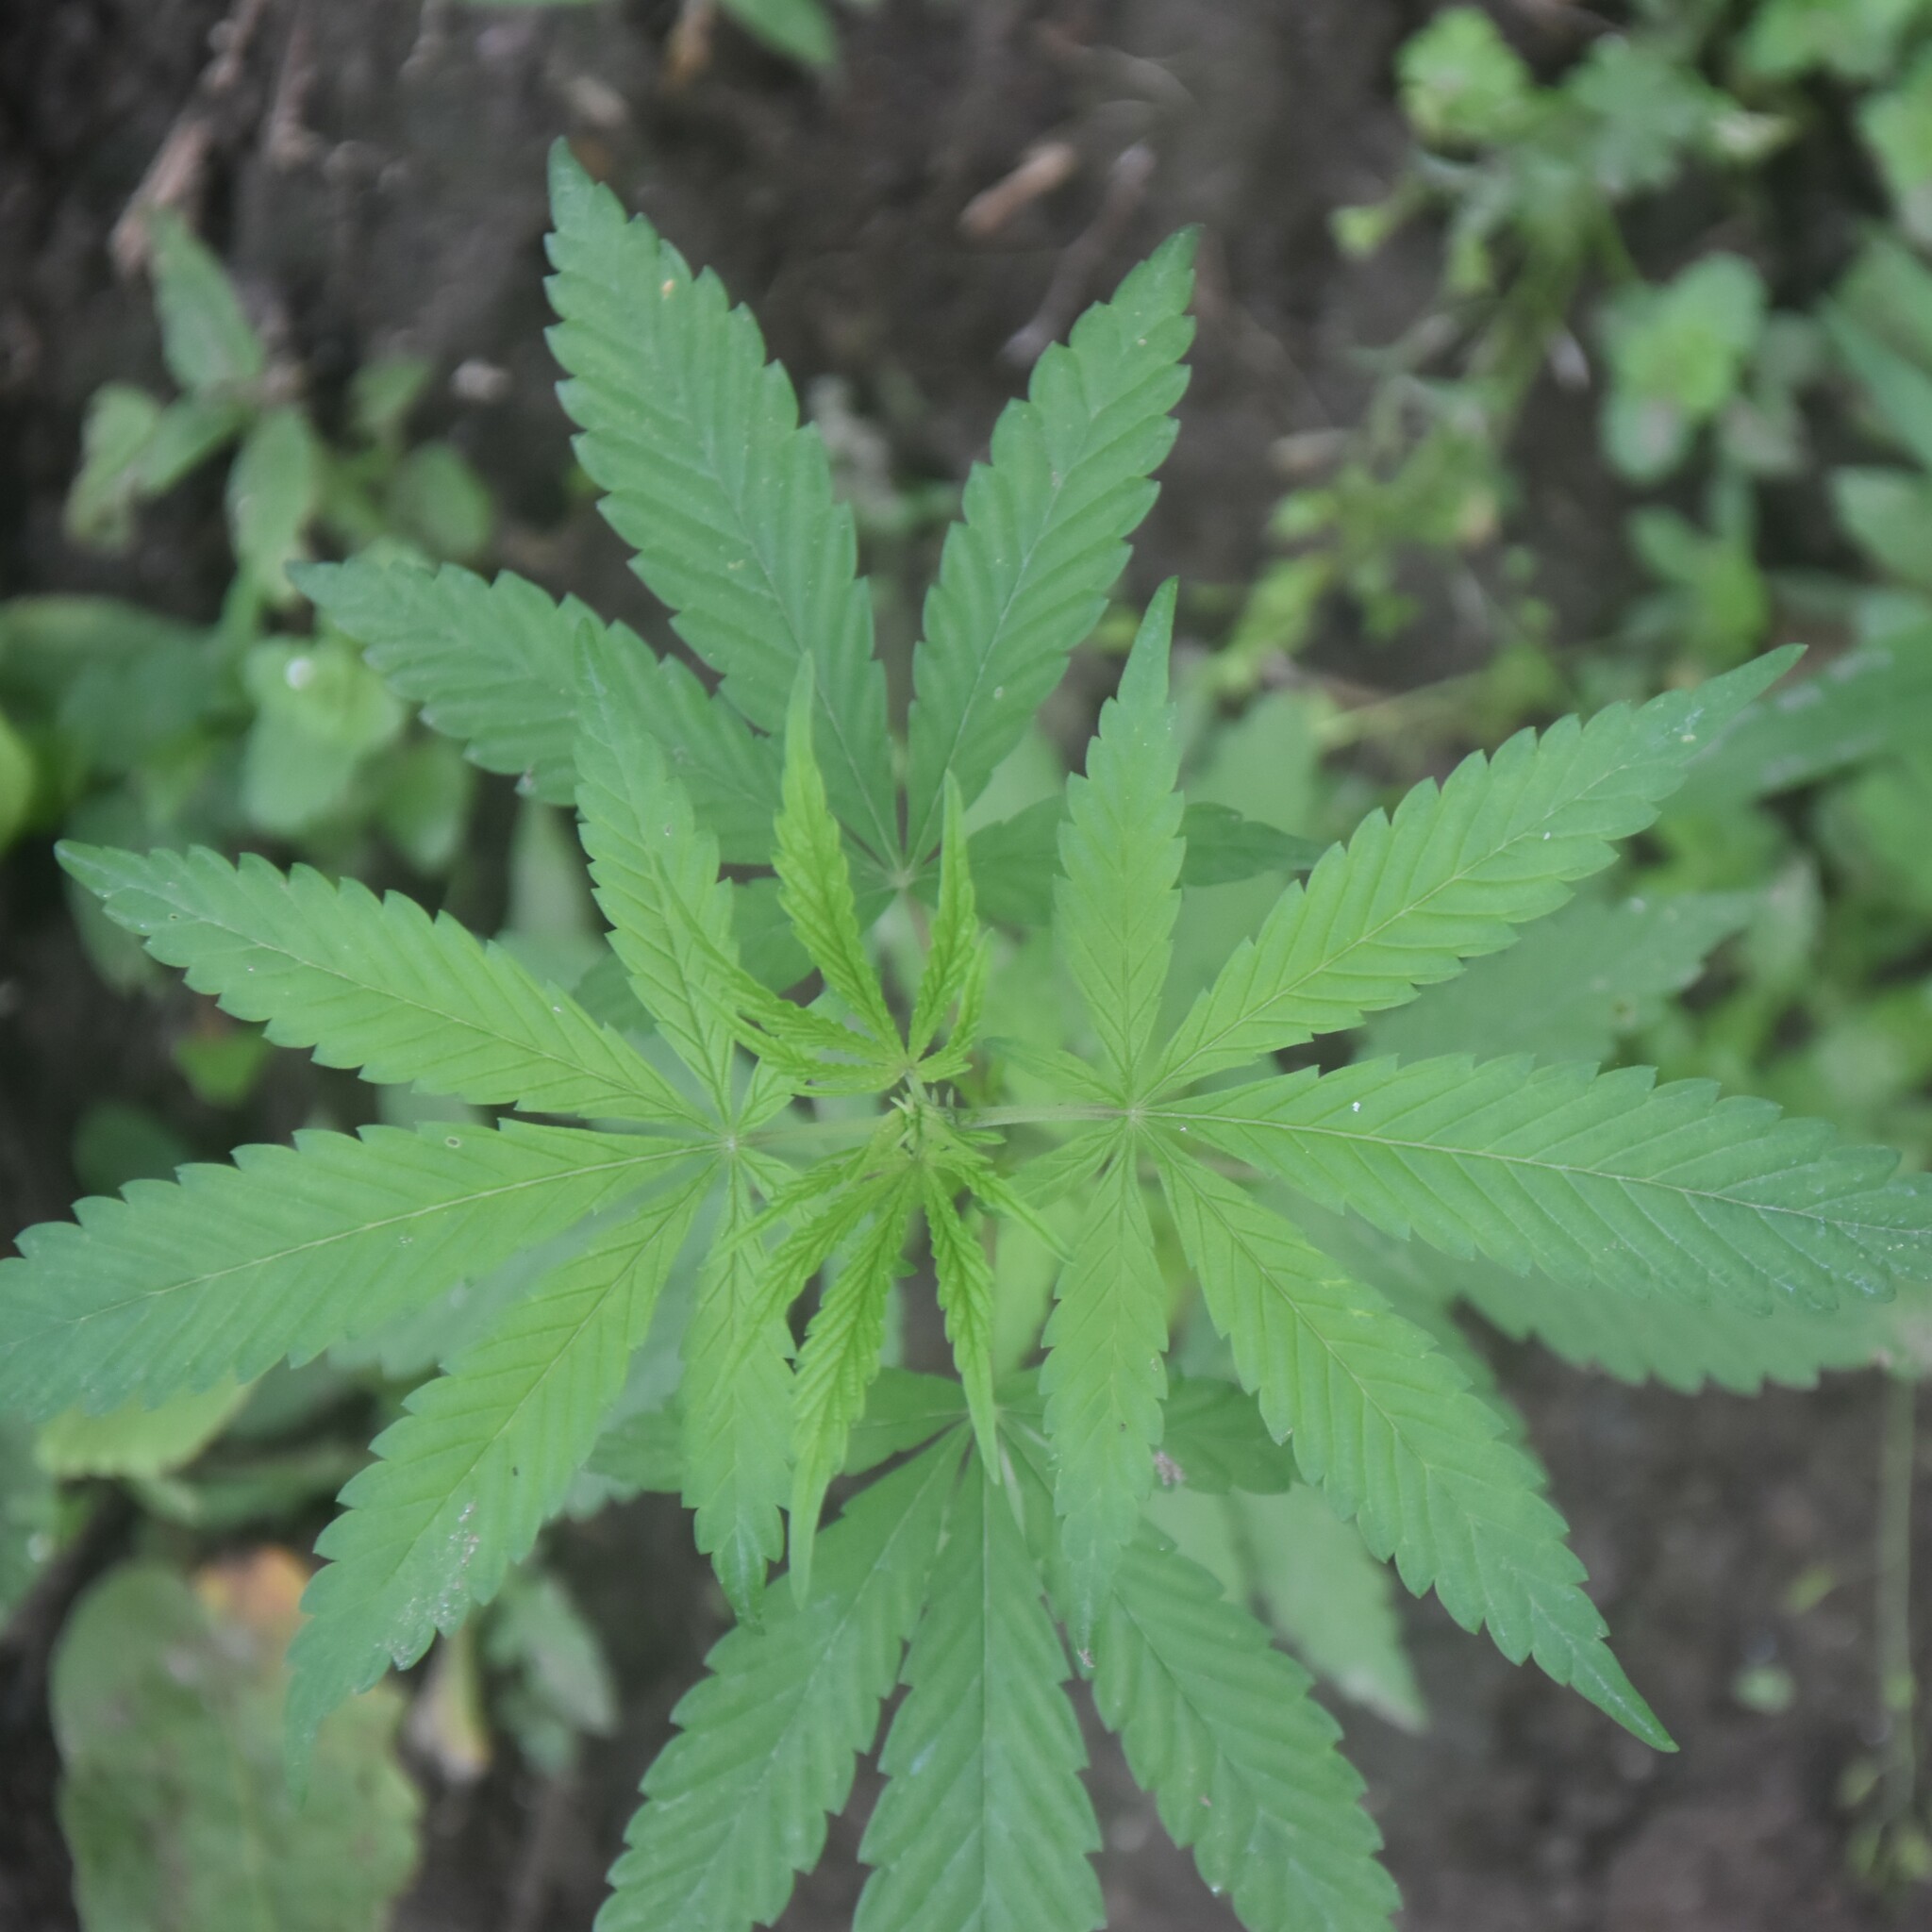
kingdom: Plantae
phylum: Tracheophyta
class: Magnoliopsida
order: Rosales
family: Cannabaceae
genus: Cannabis
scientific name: Cannabis sativa
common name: Hemp
